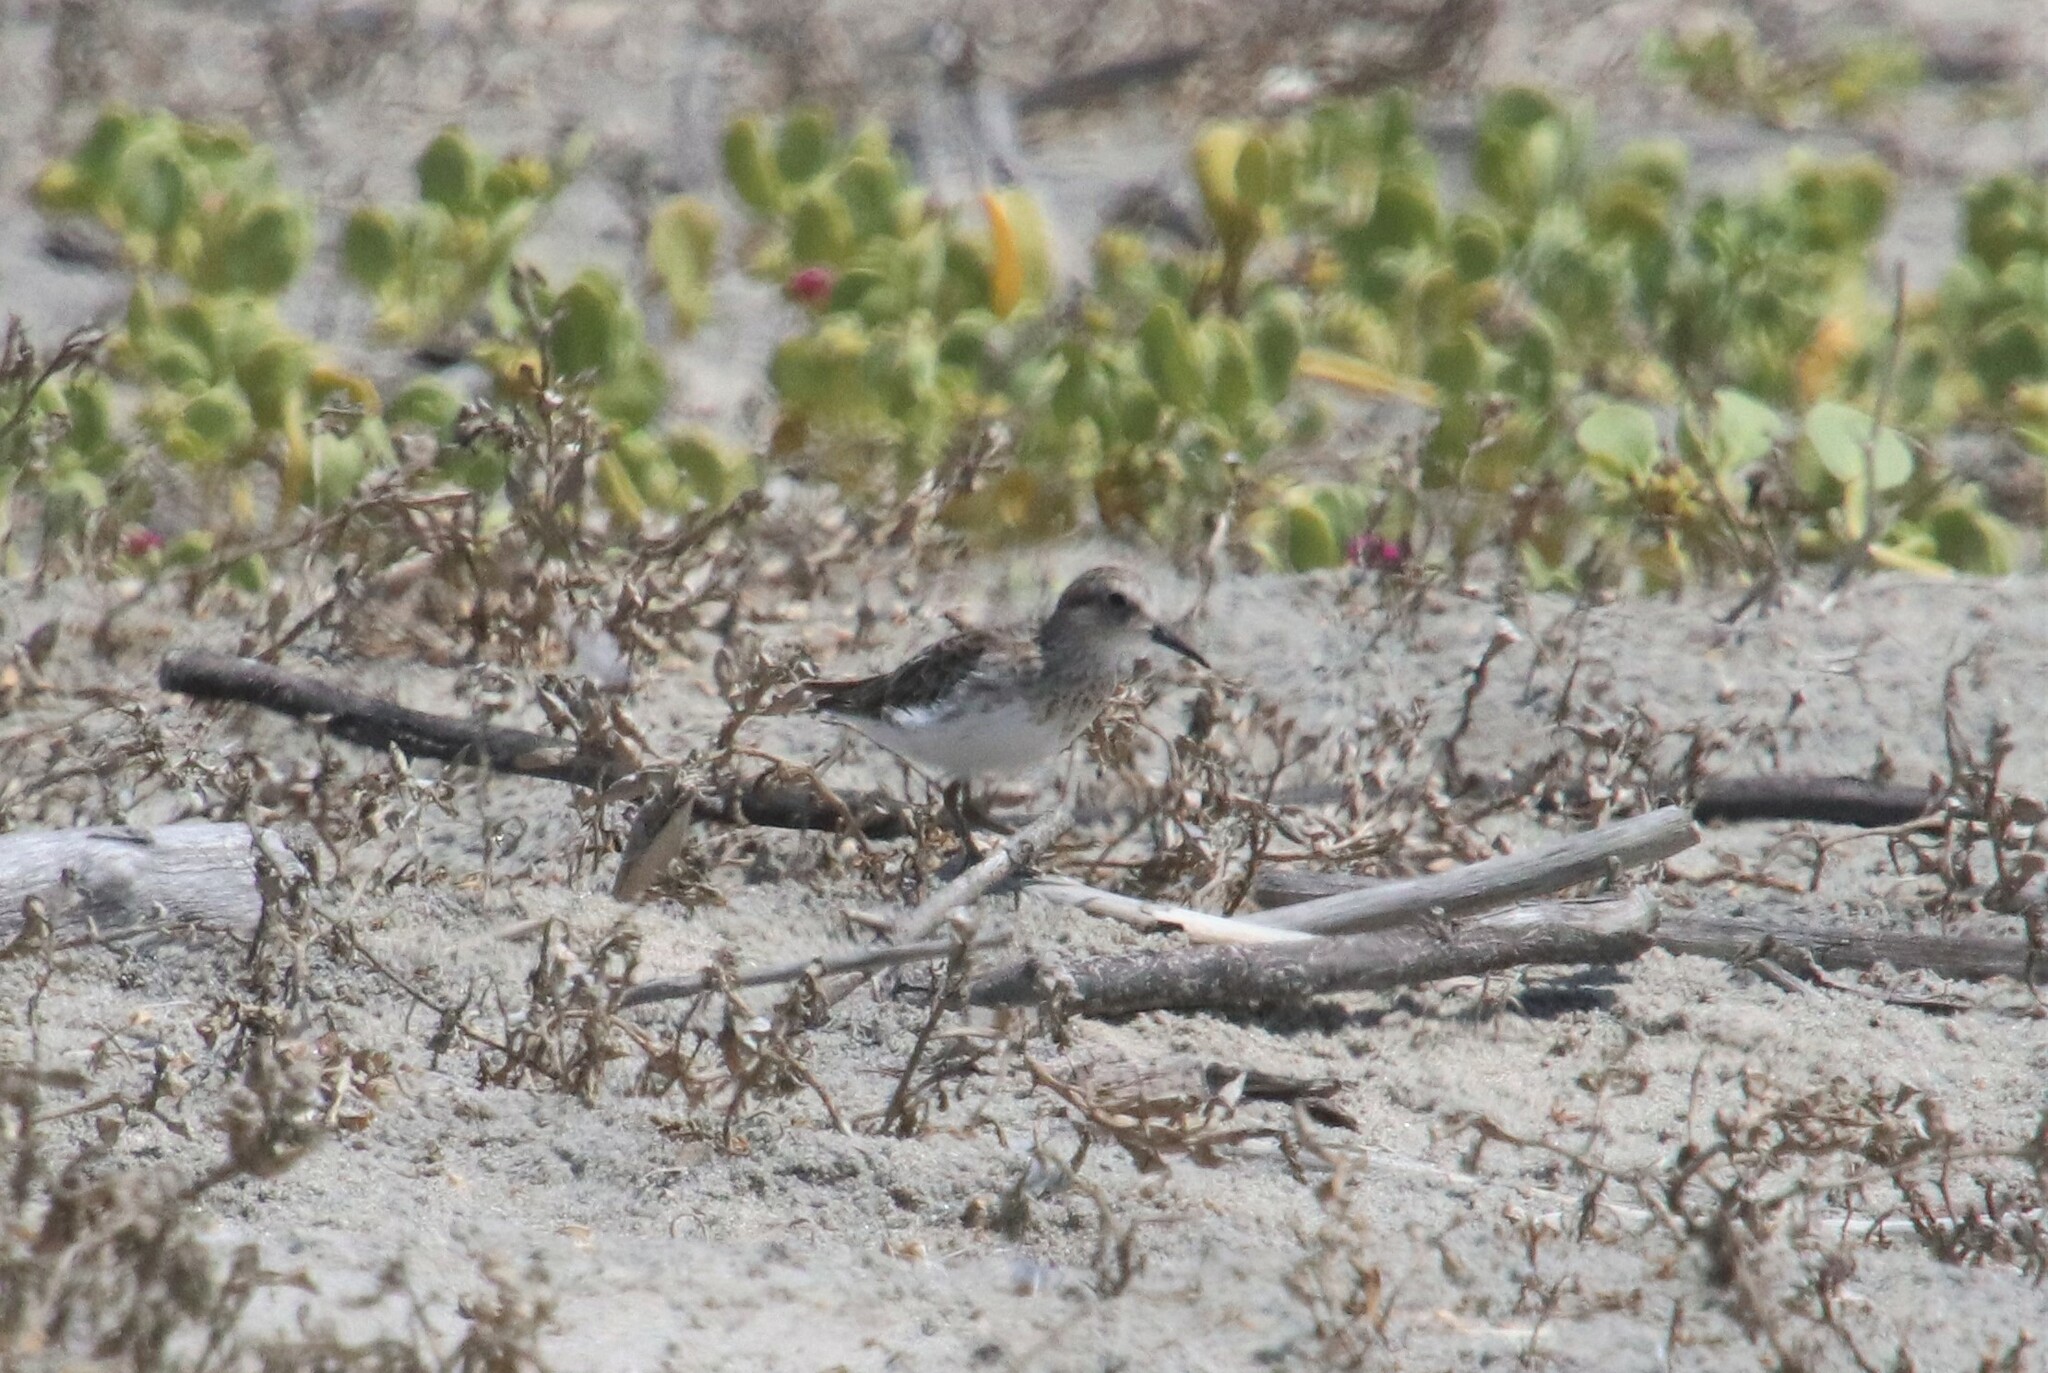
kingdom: Animalia
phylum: Chordata
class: Aves
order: Charadriiformes
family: Scolopacidae
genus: Calidris
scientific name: Calidris minutilla
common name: Least sandpiper
